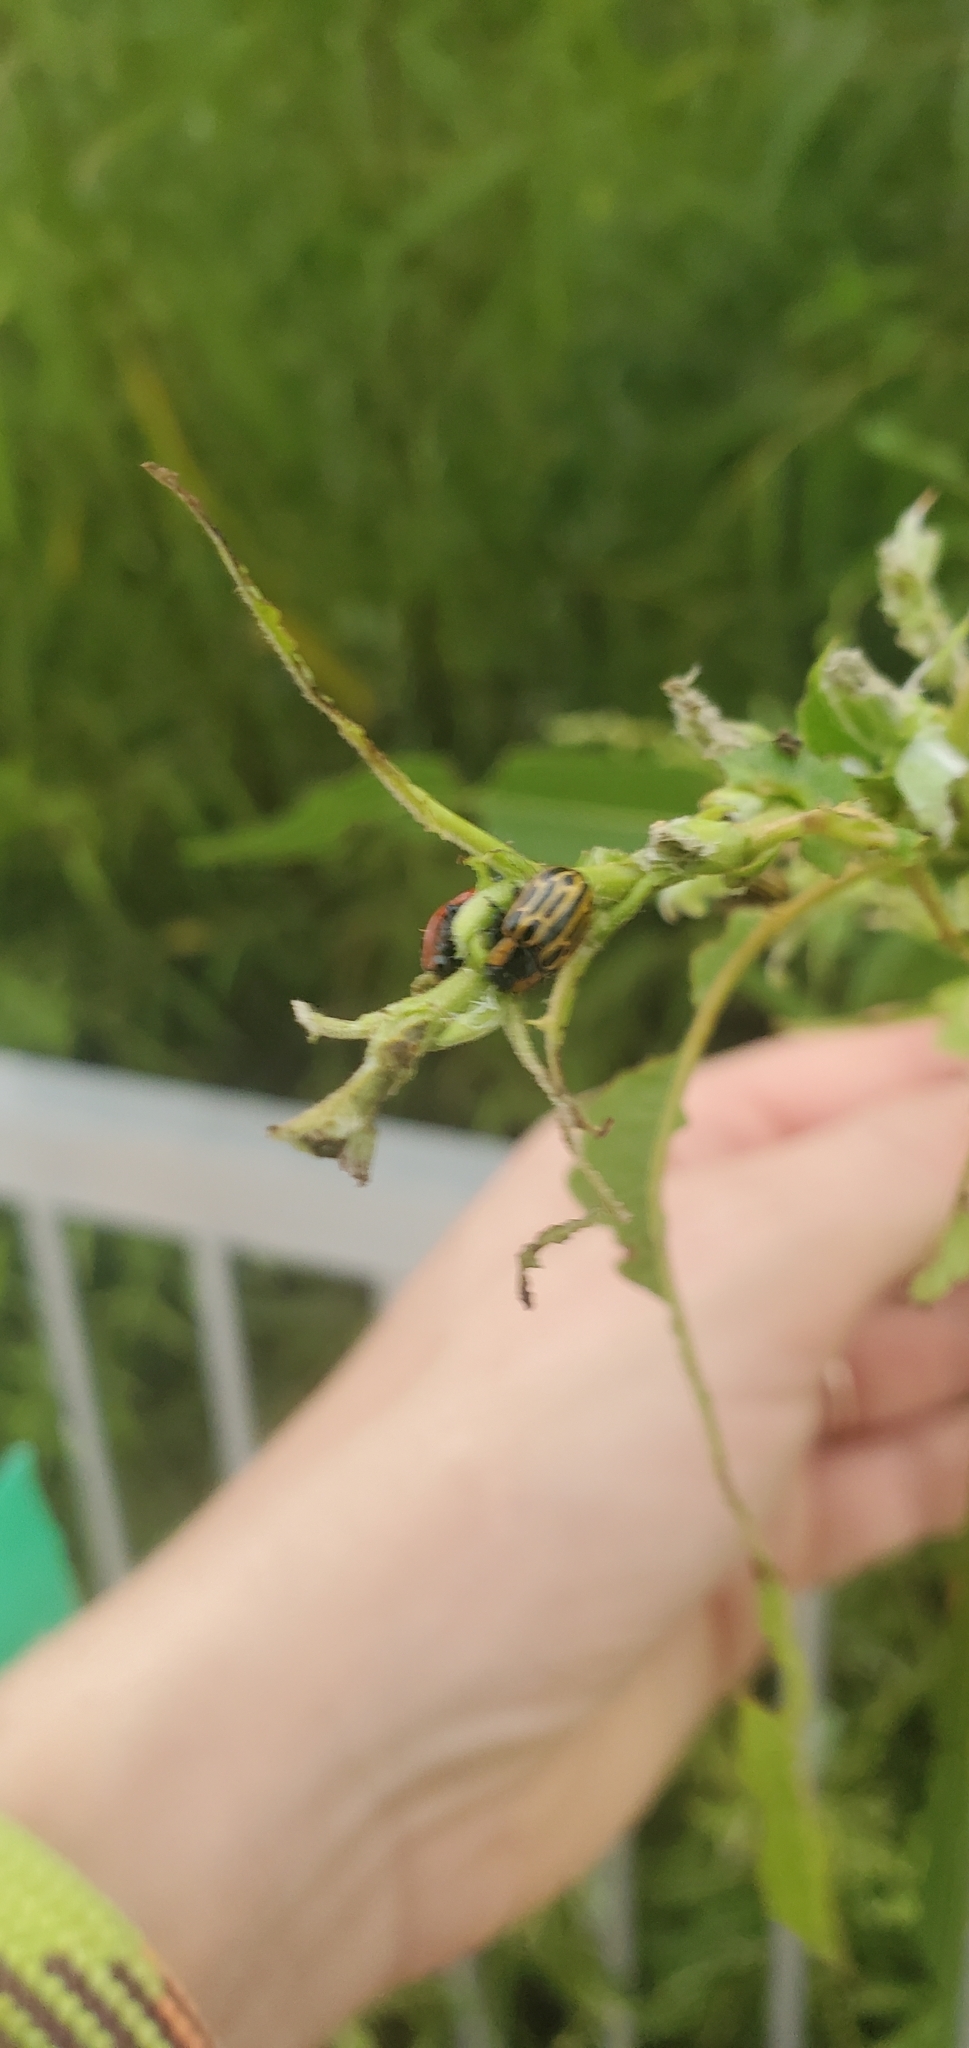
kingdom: Animalia
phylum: Arthropoda
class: Insecta
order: Coleoptera
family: Chrysomelidae
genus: Aethiopocassis
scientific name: Aethiopocassis scripta
